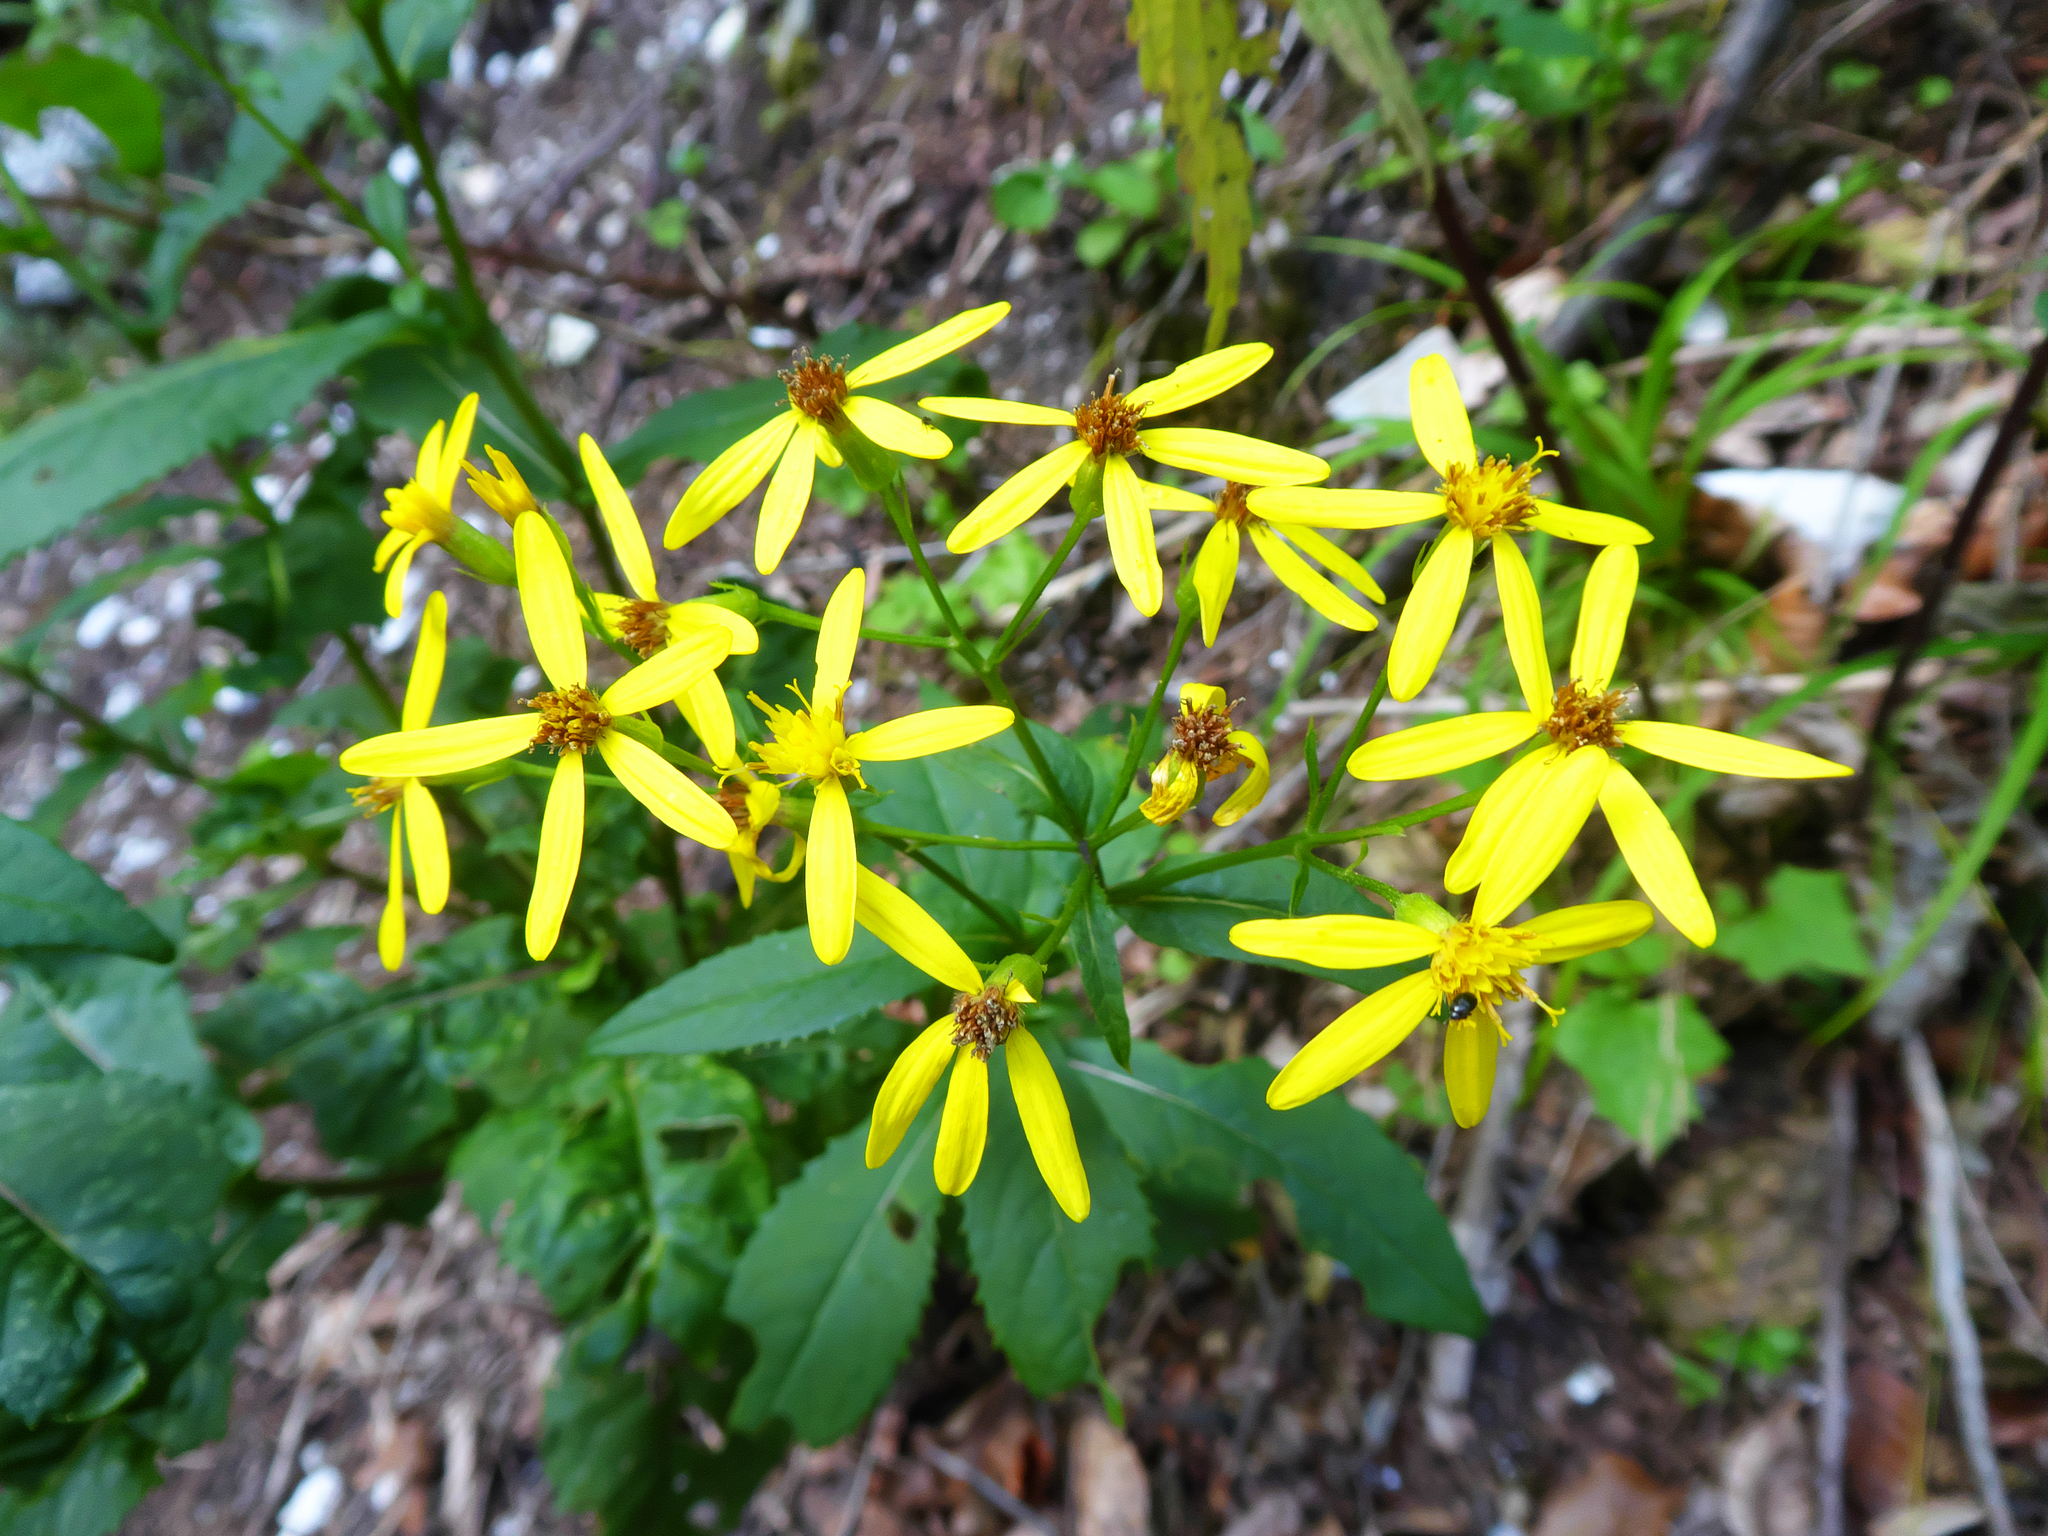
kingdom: Plantae
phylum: Tracheophyta
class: Magnoliopsida
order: Asterales
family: Asteraceae
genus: Senecio
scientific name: Senecio ovatus
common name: Wood ragwort
